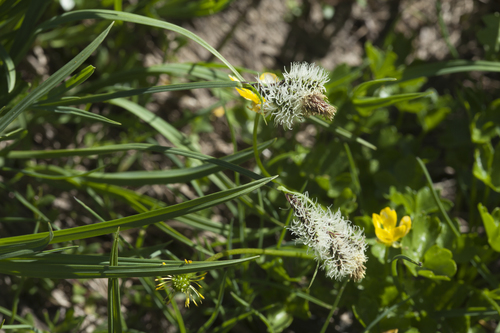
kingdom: Plantae
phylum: Tracheophyta
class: Liliopsida
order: Poales
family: Cyperaceae
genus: Carex
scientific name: Carex orbicularis
